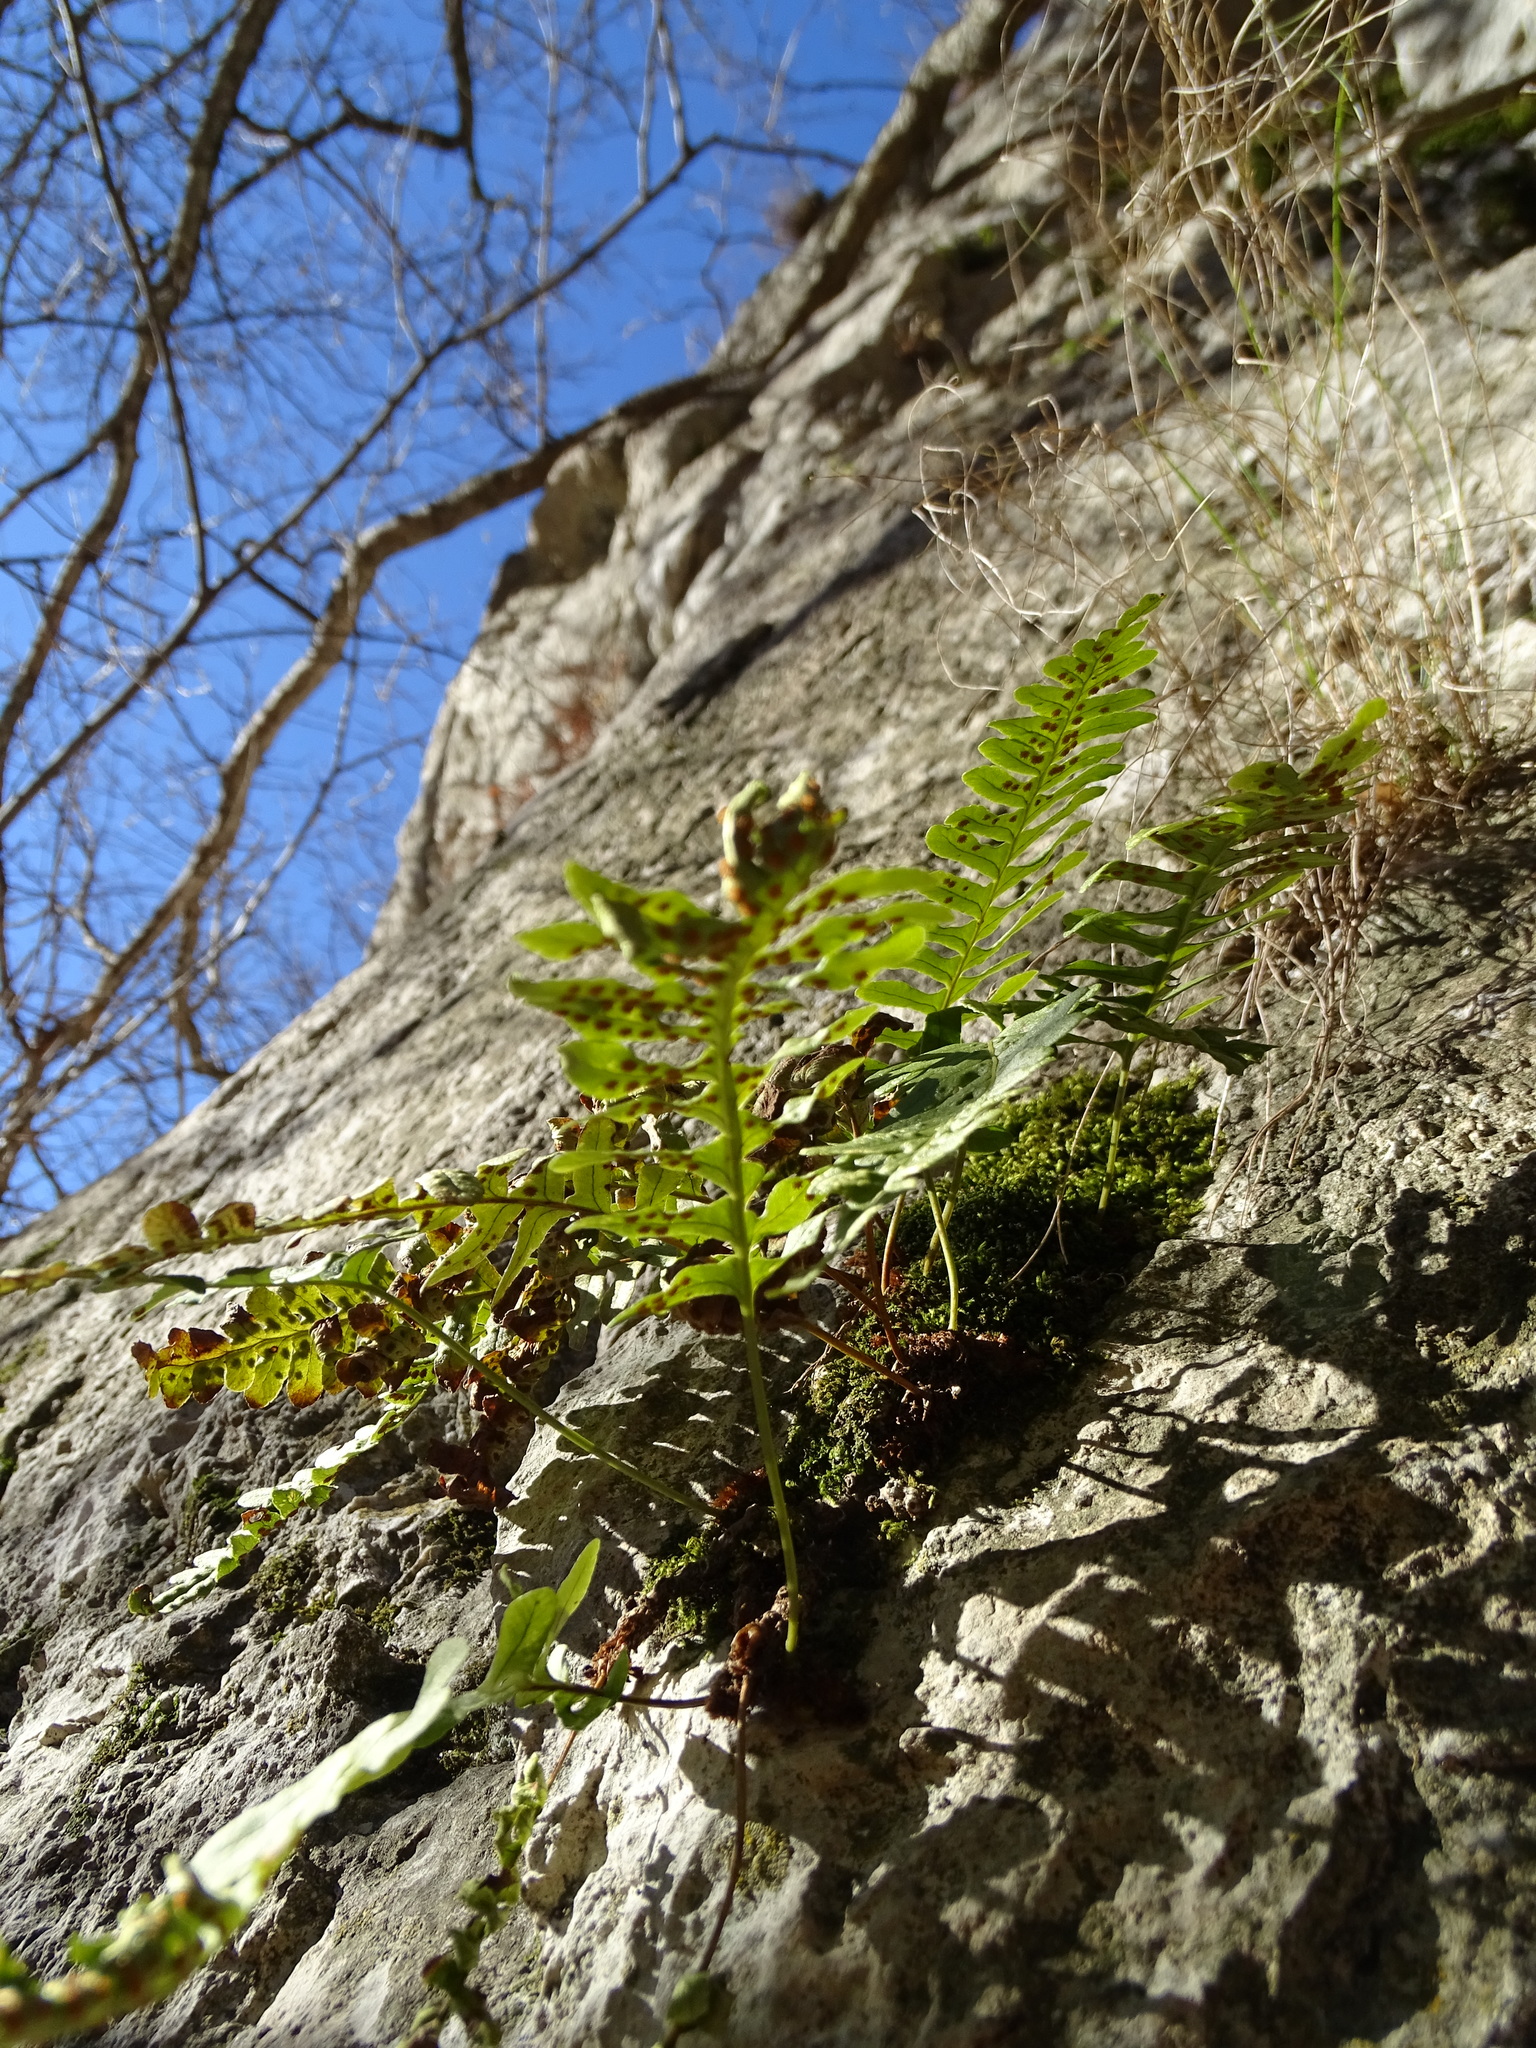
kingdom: Plantae
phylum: Tracheophyta
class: Polypodiopsida
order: Polypodiales
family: Polypodiaceae
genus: Polypodium
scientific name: Polypodium vulgare
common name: Common polypody
